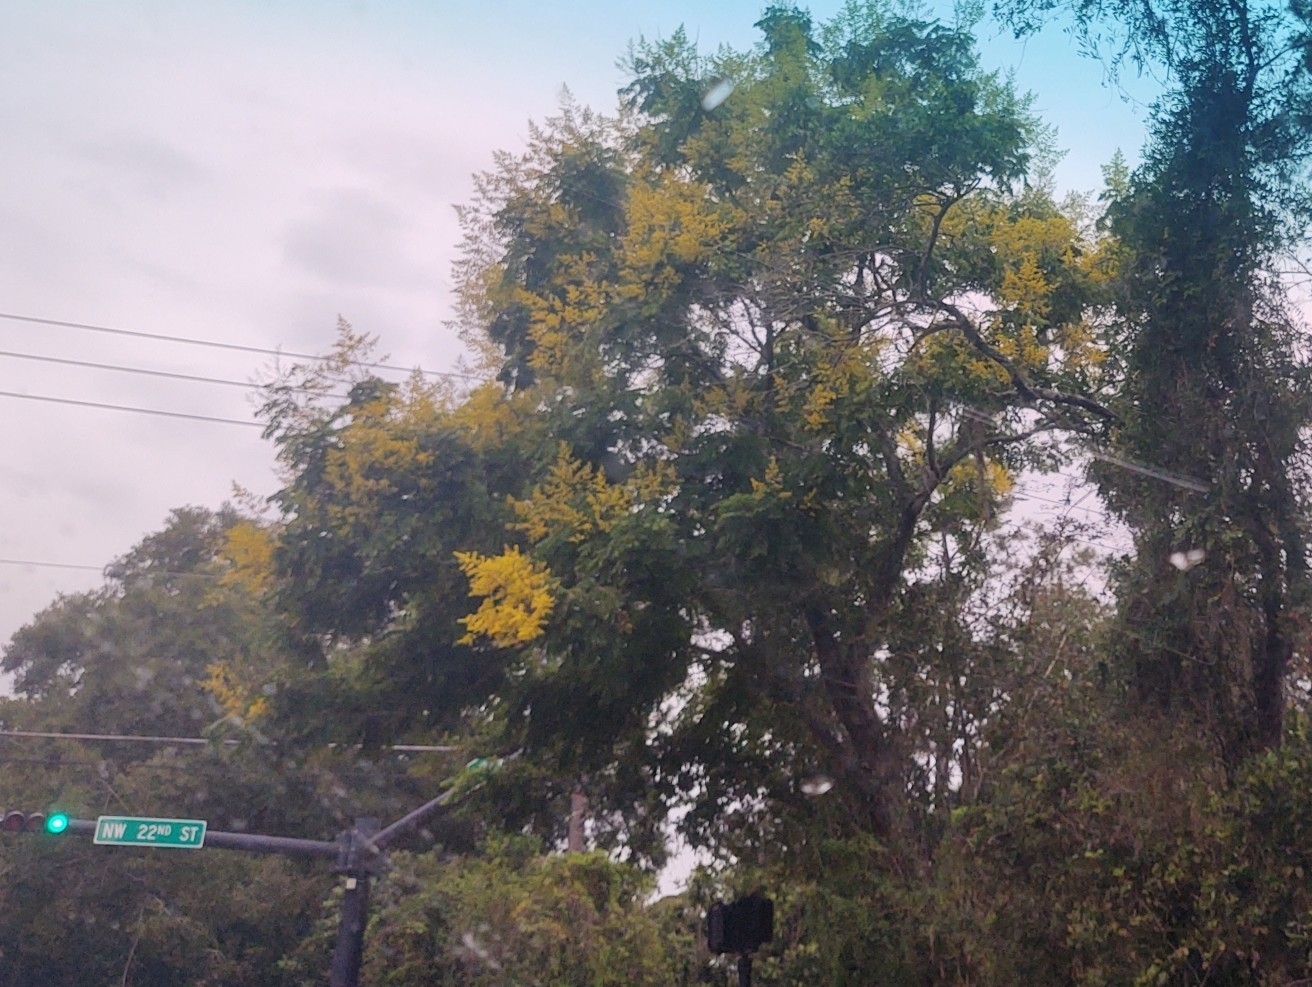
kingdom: Plantae
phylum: Tracheophyta
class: Magnoliopsida
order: Sapindales
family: Sapindaceae
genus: Koelreuteria
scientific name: Koelreuteria elegans
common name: Chinese flame tree
